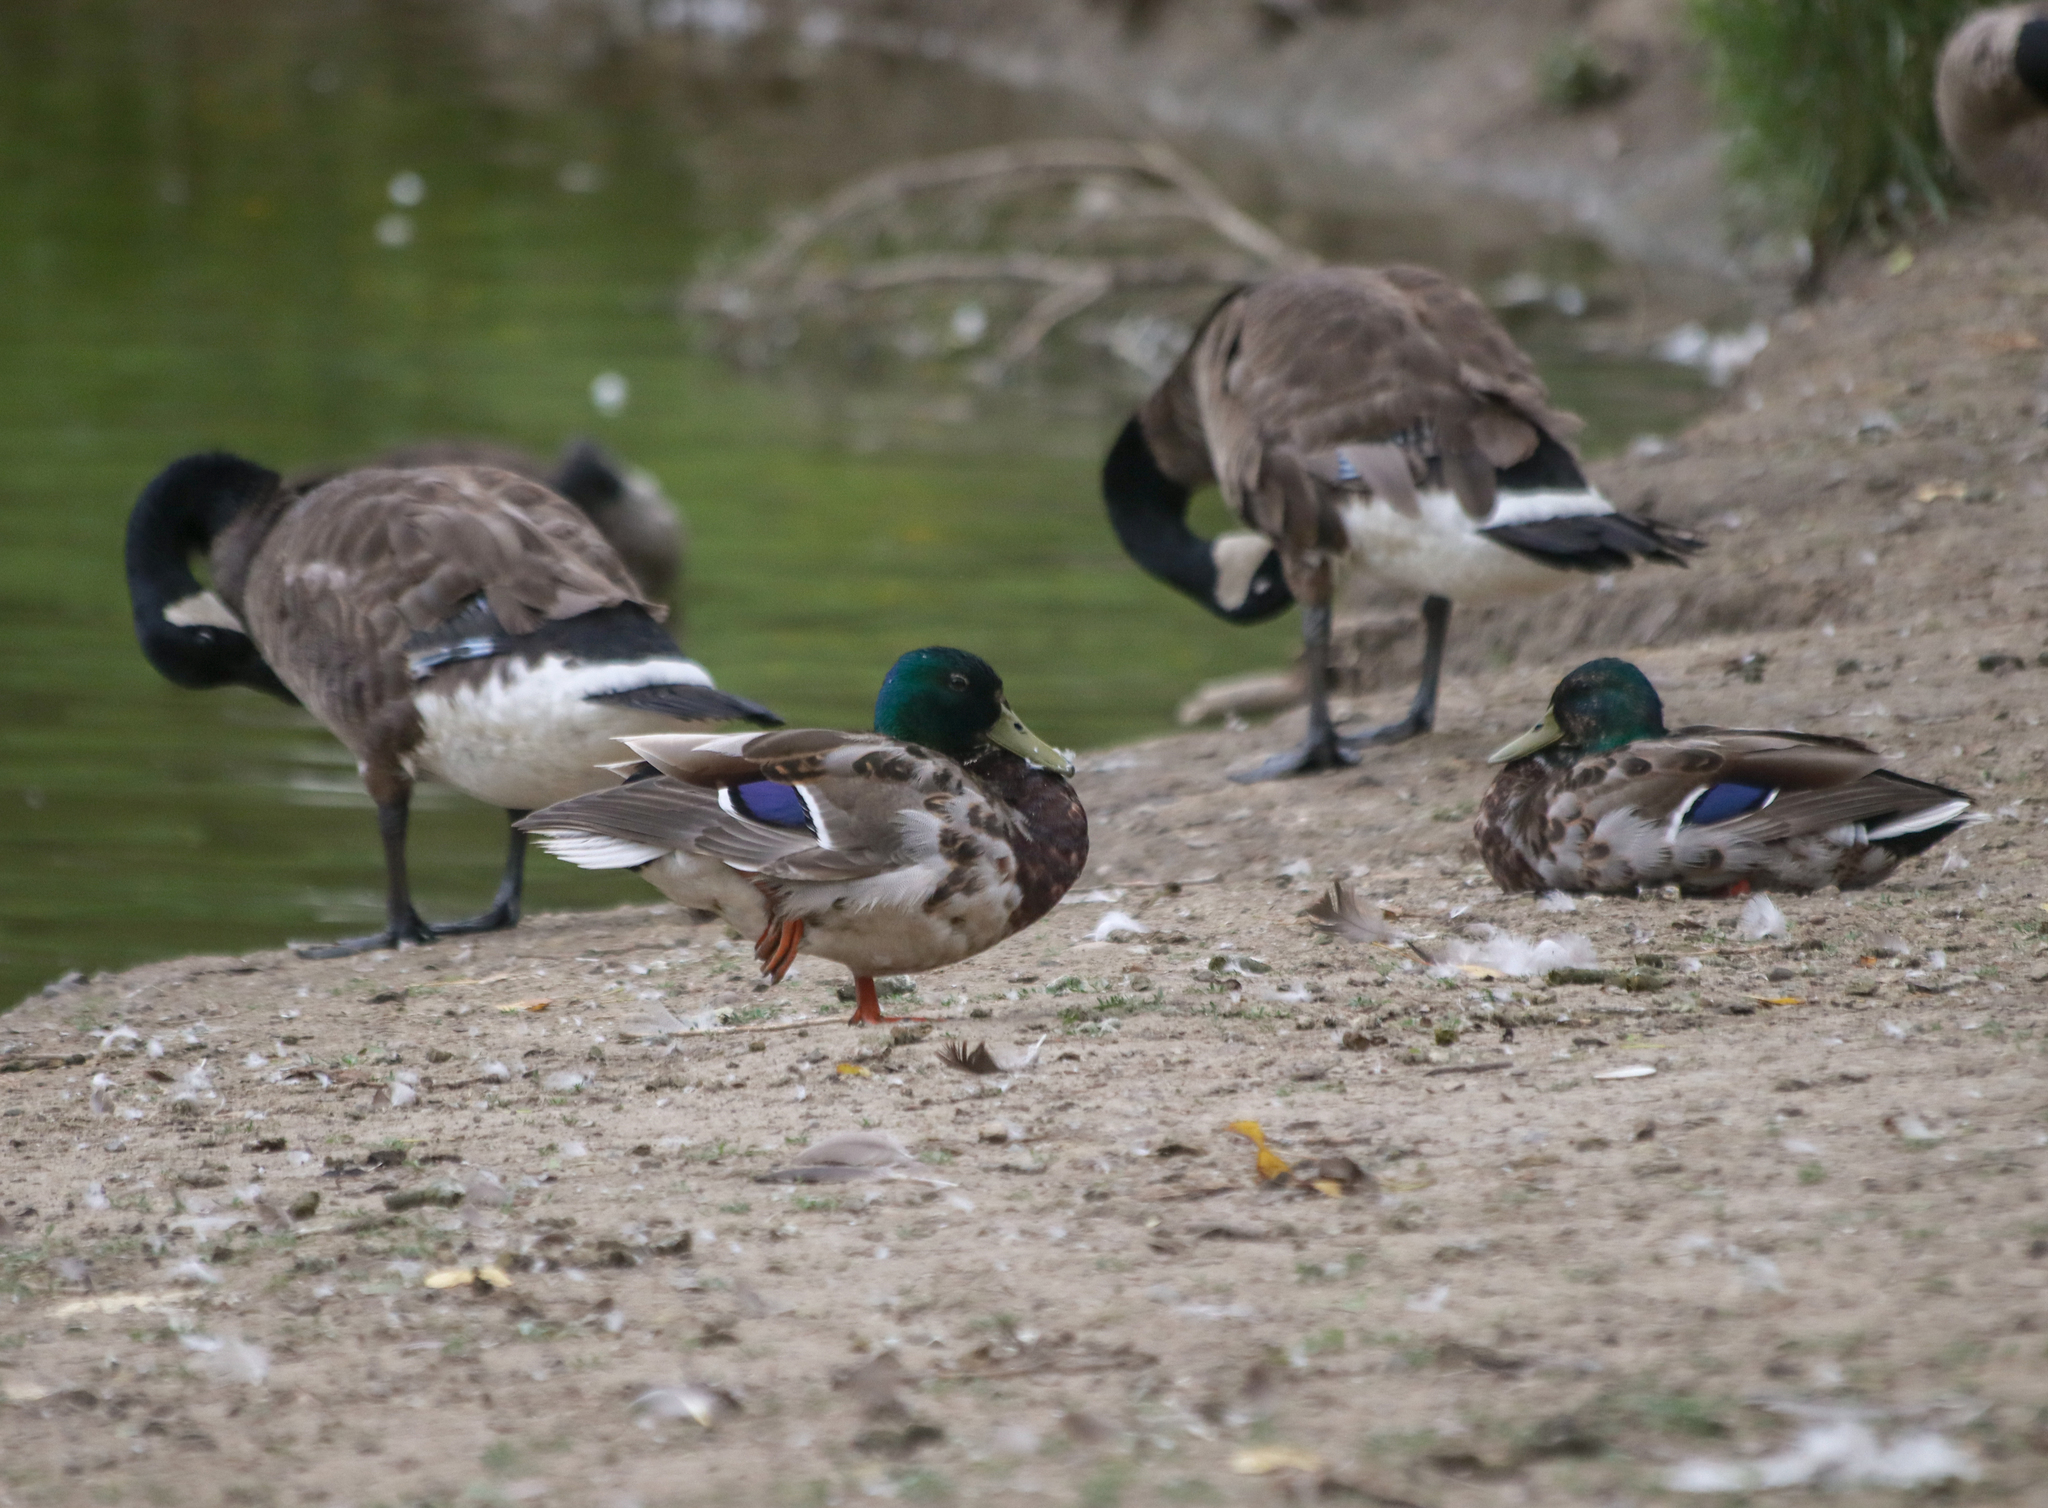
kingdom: Animalia
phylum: Chordata
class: Aves
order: Anseriformes
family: Anatidae
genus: Anas
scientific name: Anas platyrhynchos
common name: Mallard
